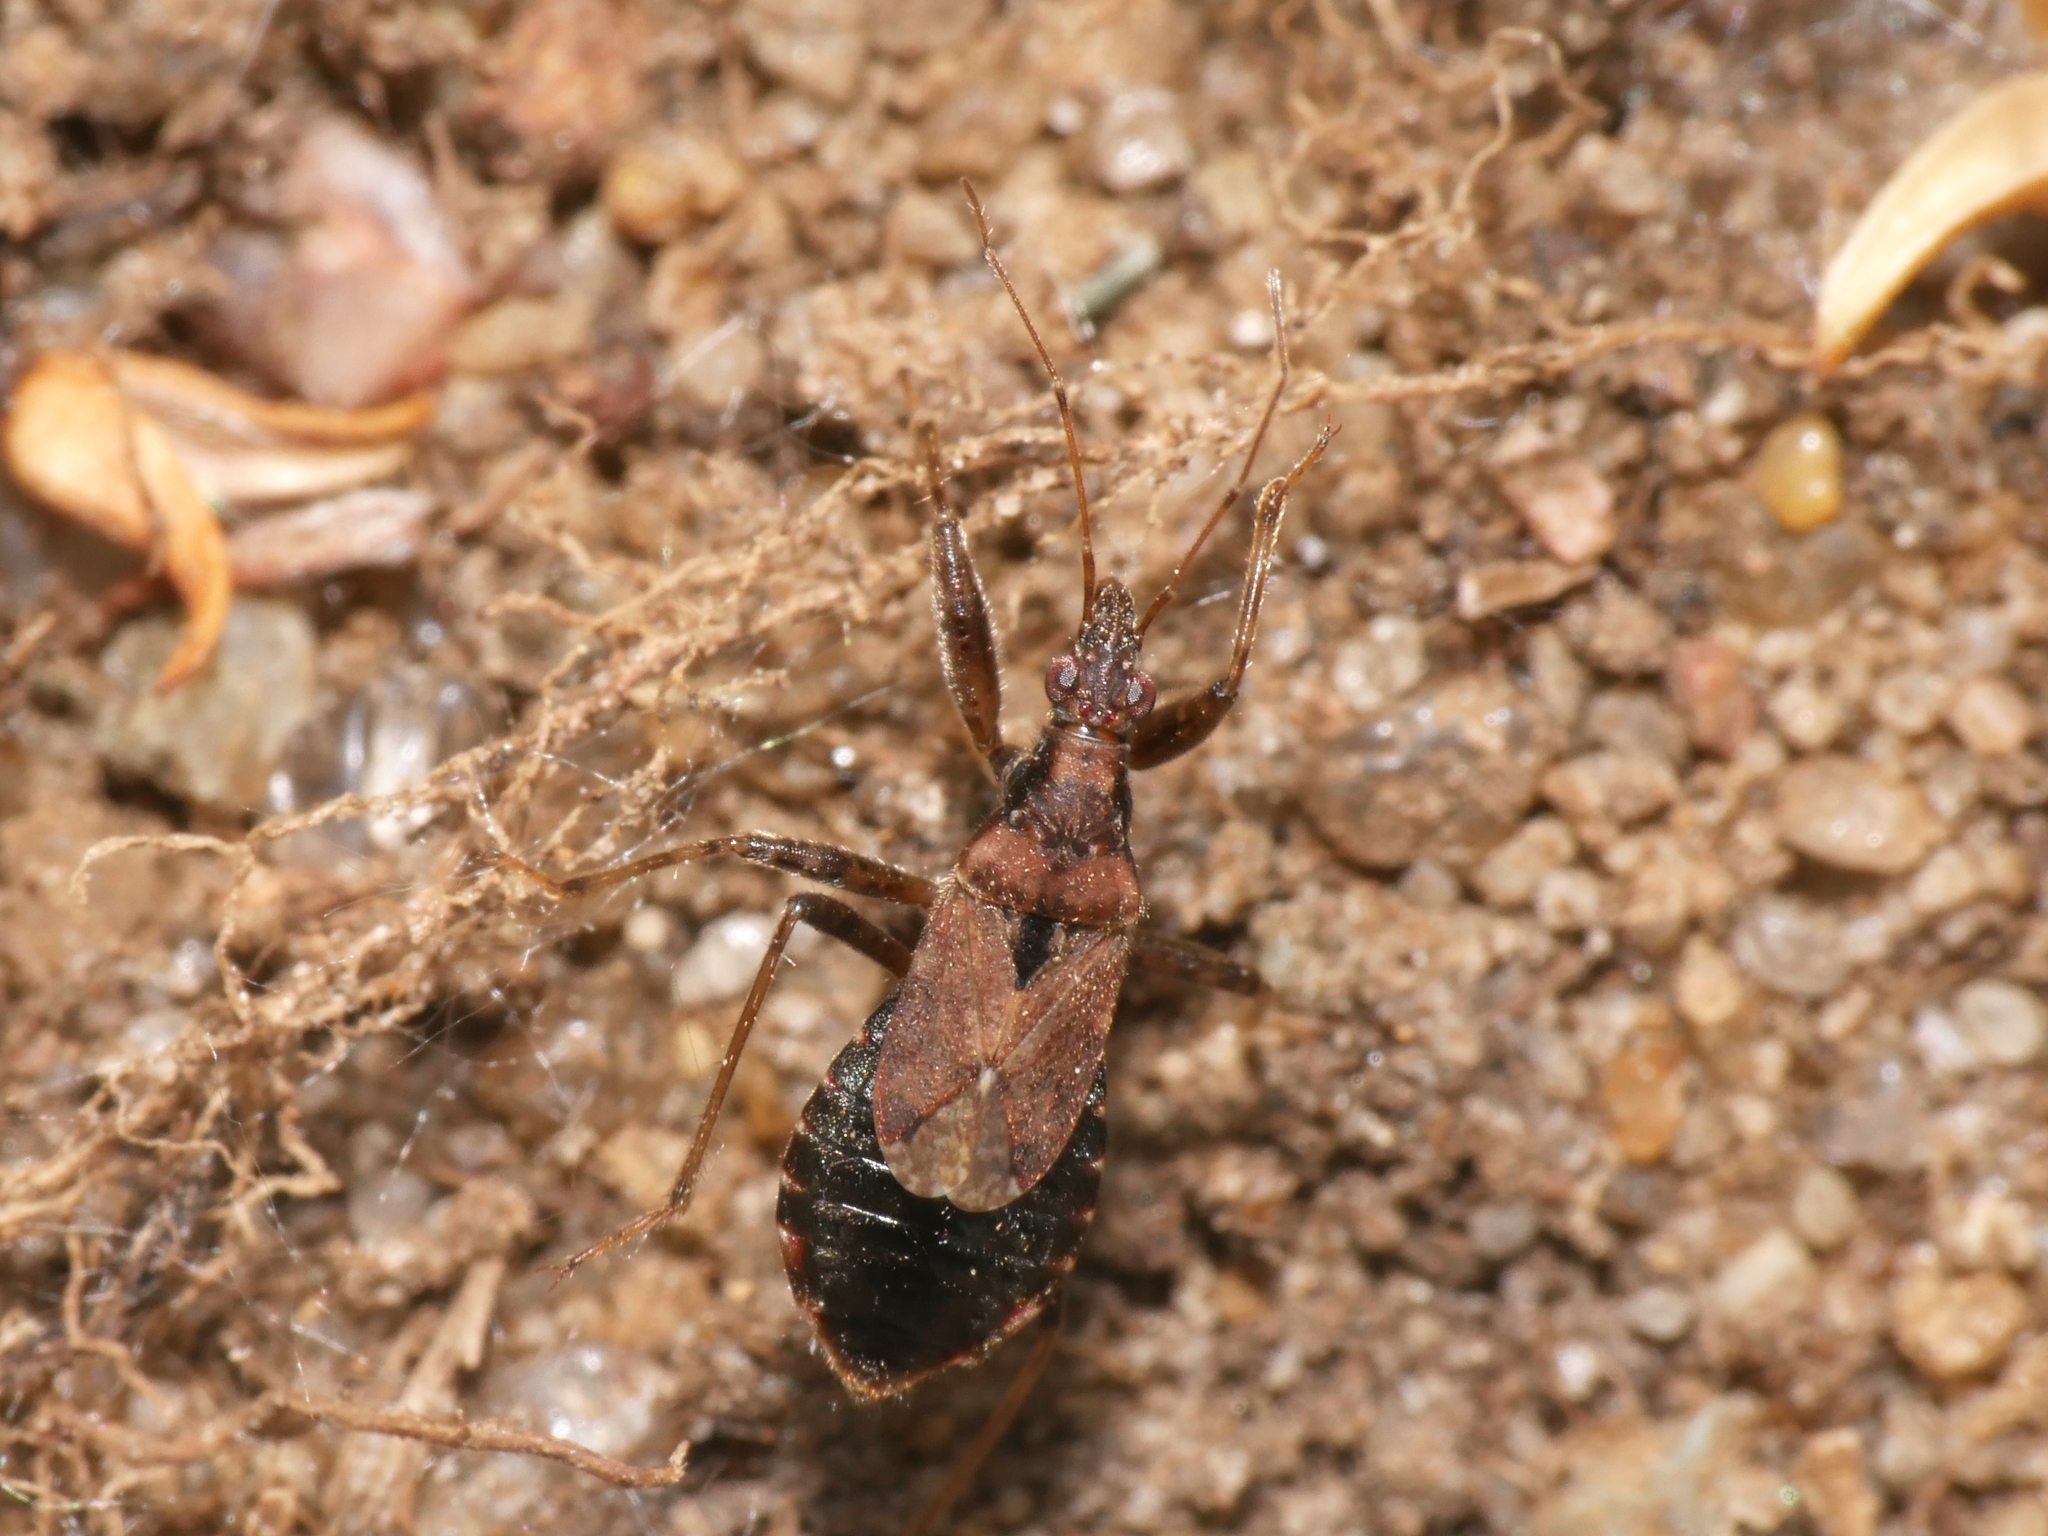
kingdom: Animalia
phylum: Arthropoda
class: Insecta
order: Hemiptera
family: Nabidae
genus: Himacerus
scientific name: Himacerus mirmicoides
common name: Ant damsel bug
